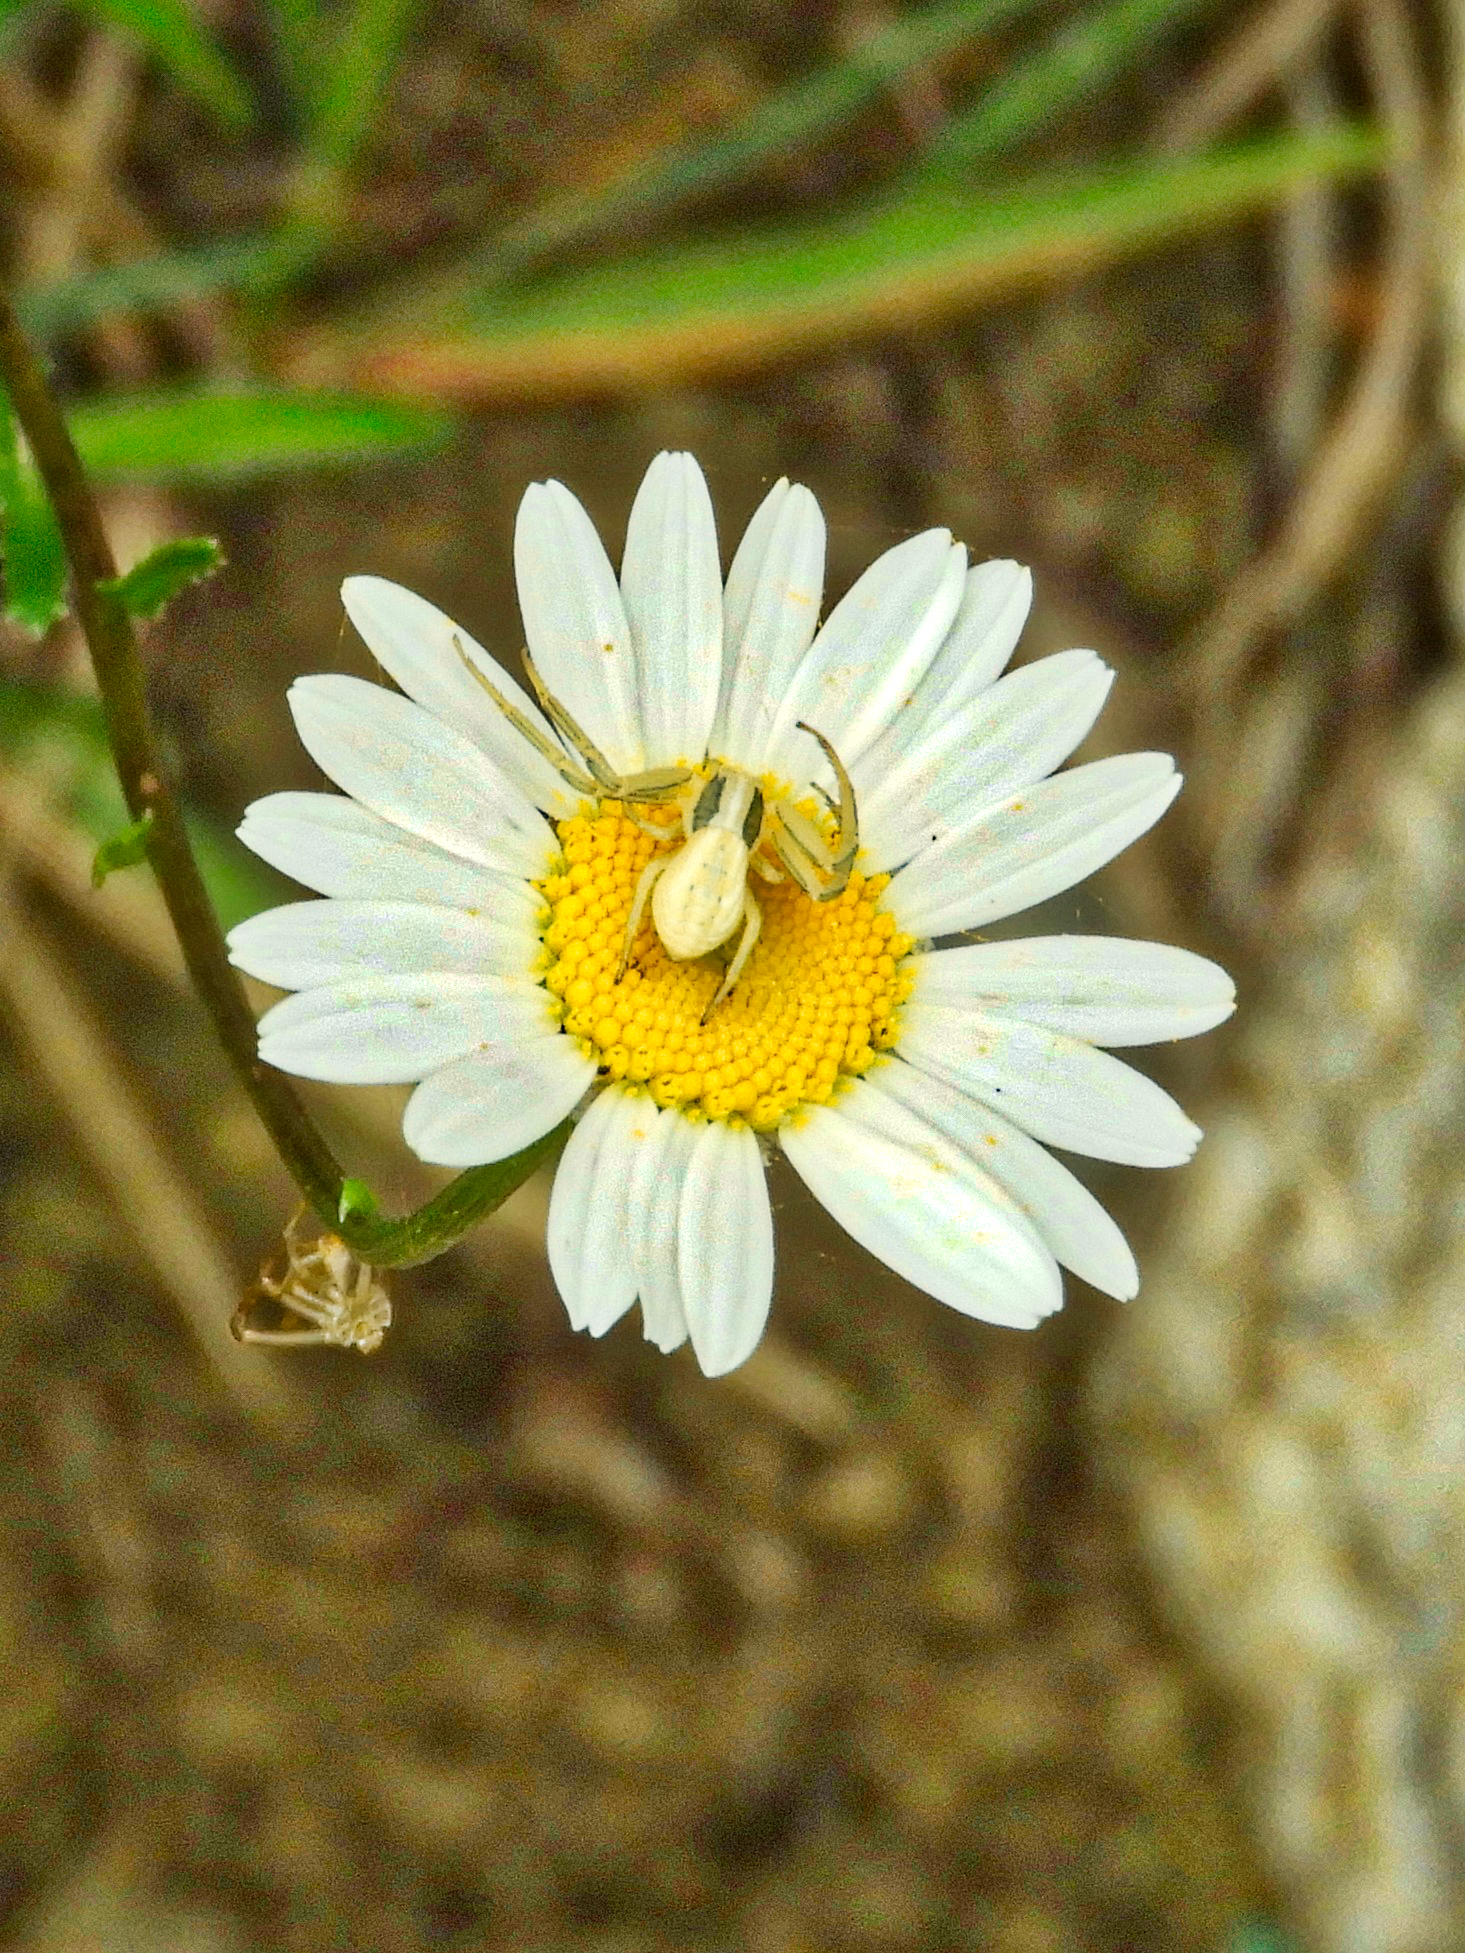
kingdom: Animalia
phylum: Arthropoda
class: Arachnida
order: Araneae
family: Thomisidae
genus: Runcinia
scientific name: Runcinia grammica
